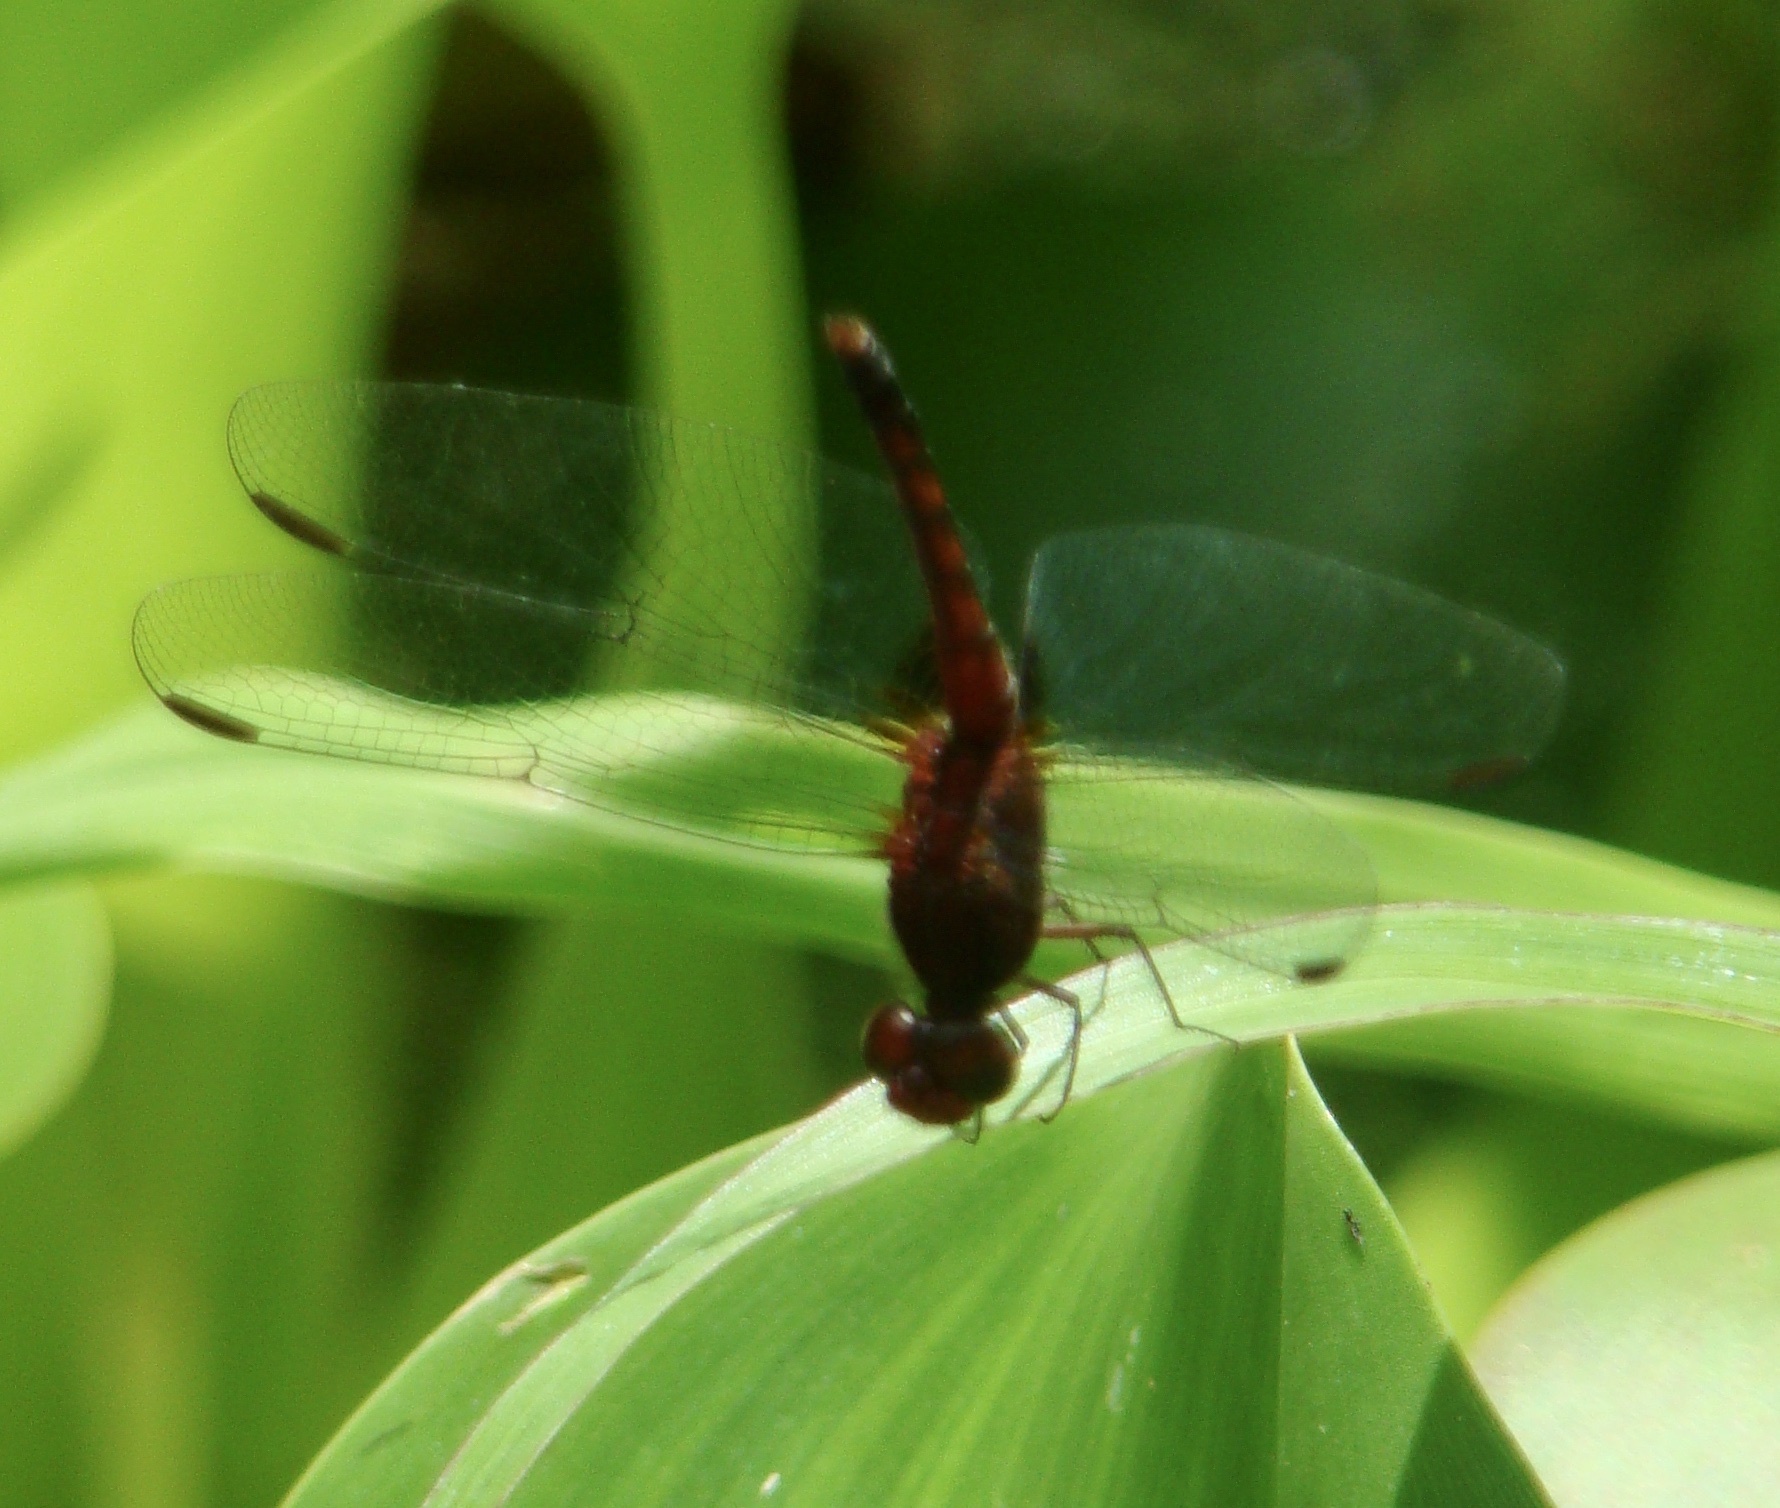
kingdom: Animalia
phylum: Arthropoda
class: Insecta
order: Odonata
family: Libellulidae
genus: Erythrodiplax
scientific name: Erythrodiplax fusca
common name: Red-faced dragonlet
